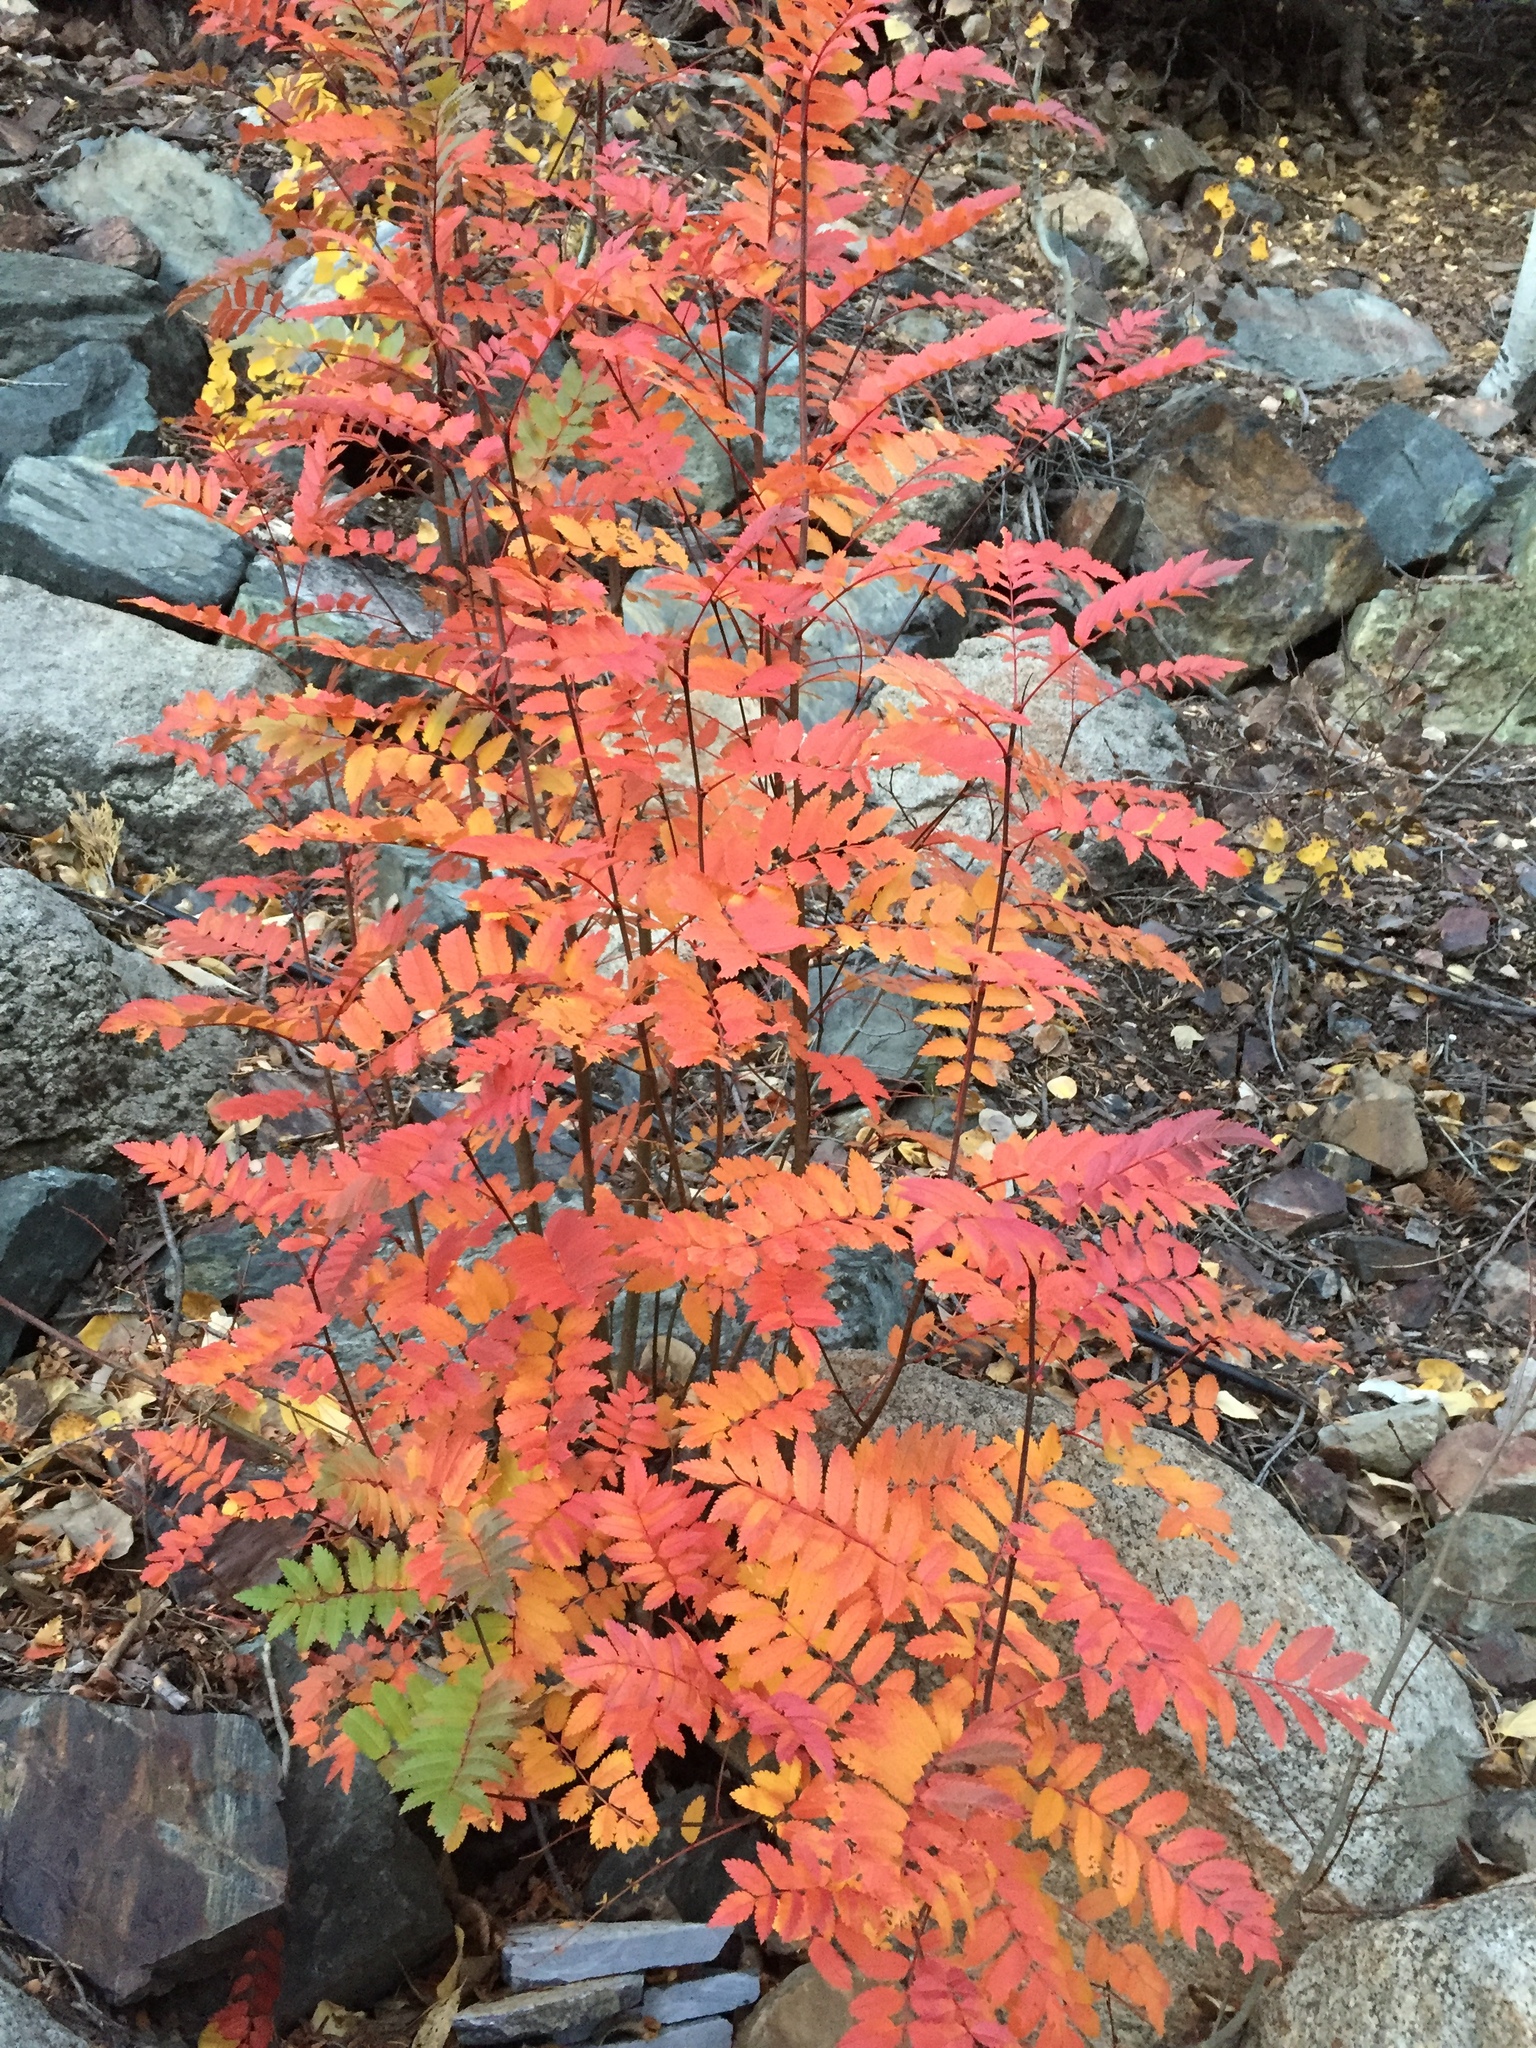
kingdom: Plantae
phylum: Tracheophyta
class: Magnoliopsida
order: Rosales
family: Rosaceae
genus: Sorbus
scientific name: Sorbus californica
